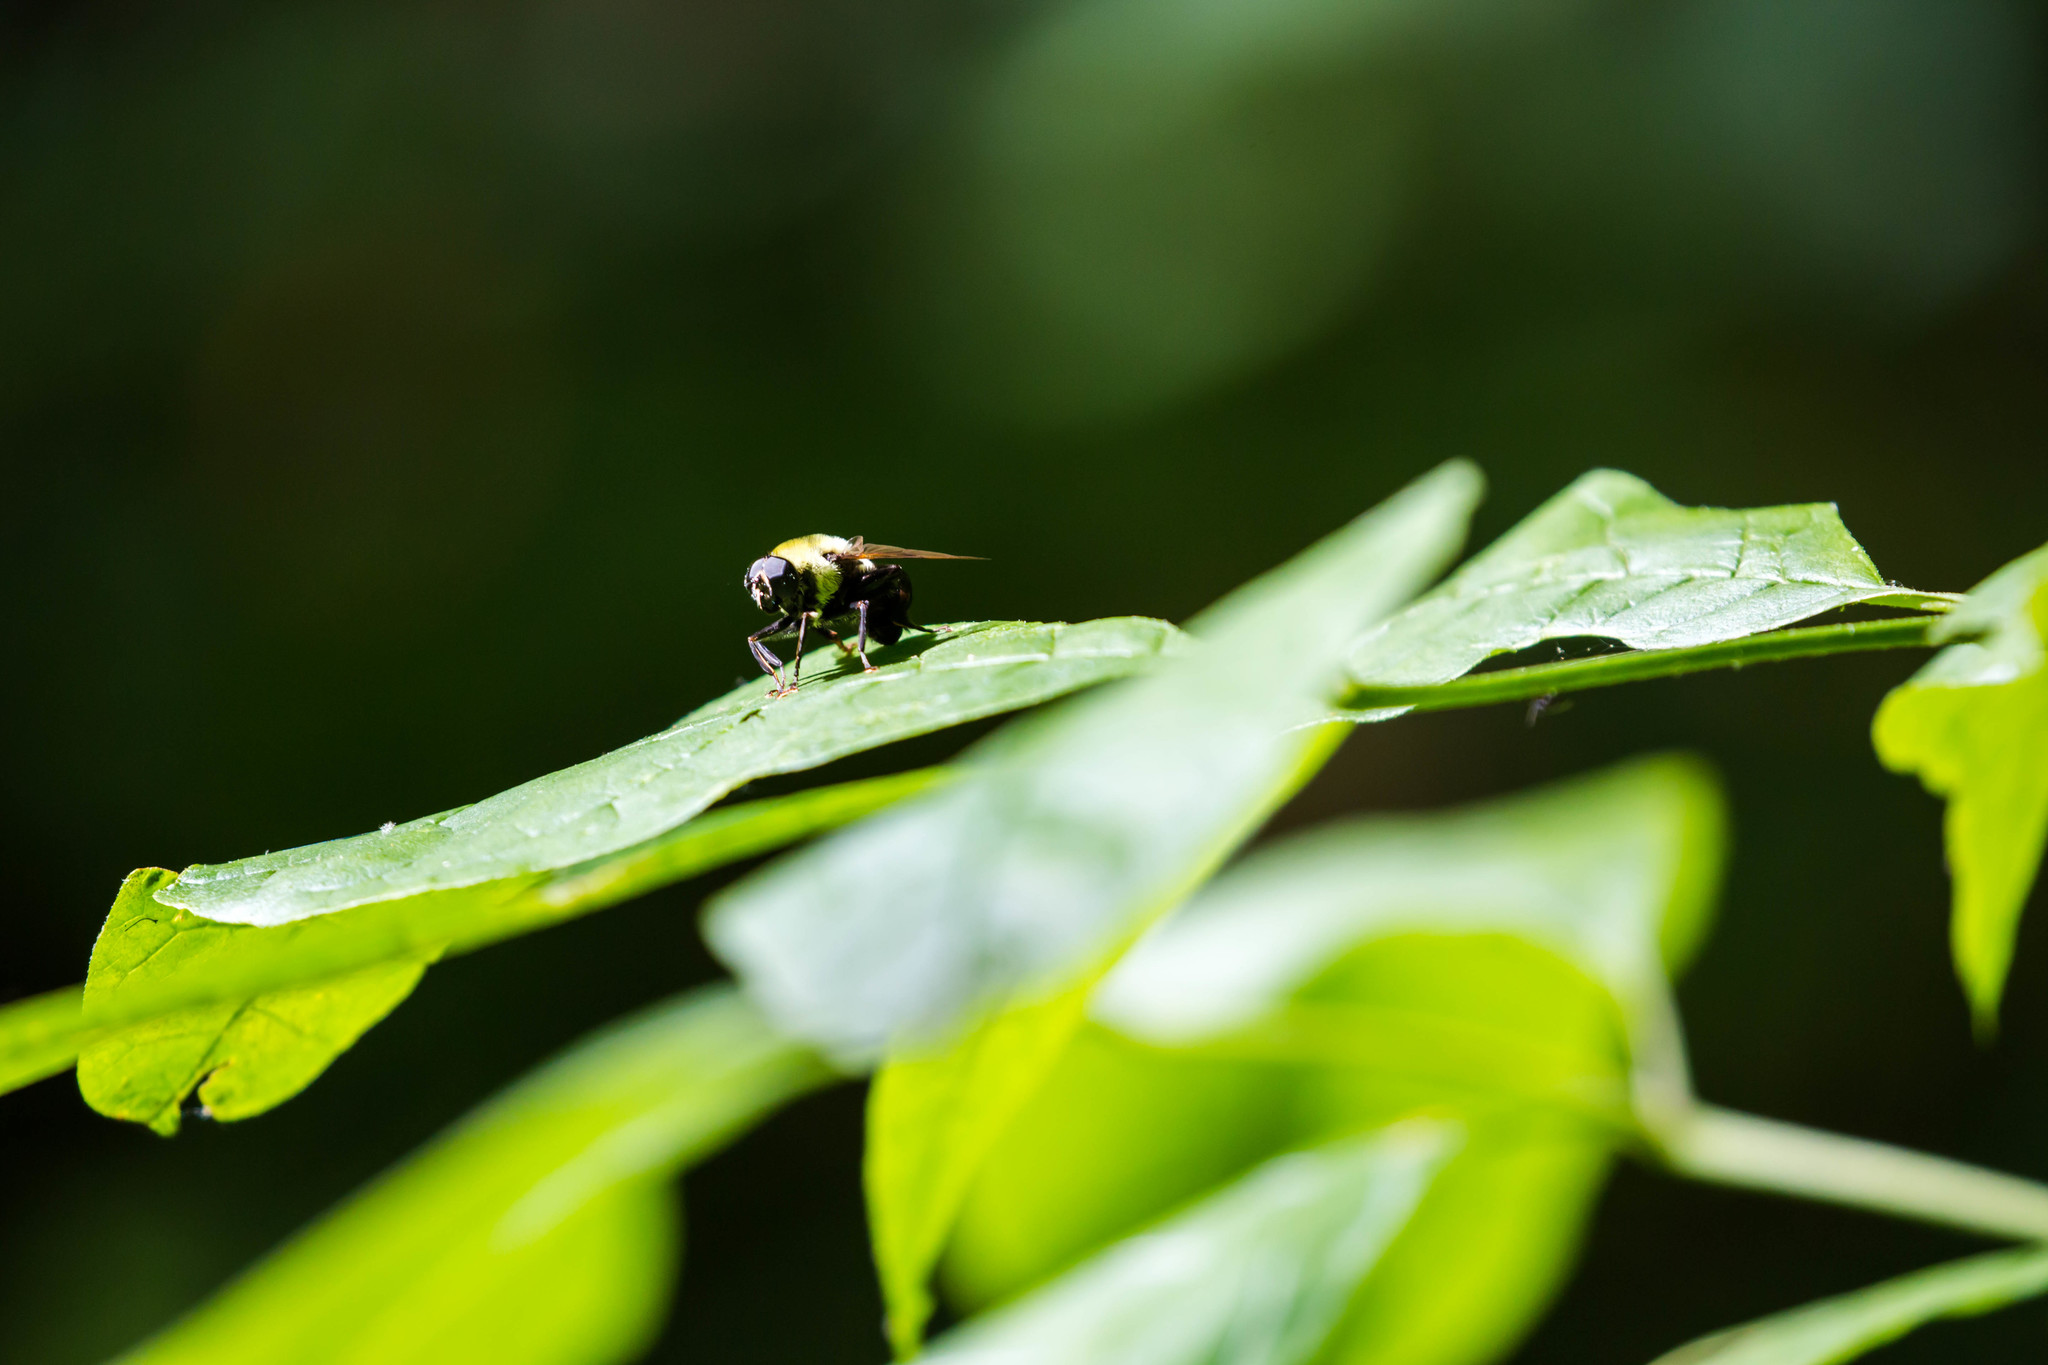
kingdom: Animalia
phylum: Arthropoda
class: Insecta
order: Diptera
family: Syrphidae
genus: Imatisma
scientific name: Imatisma posticata
